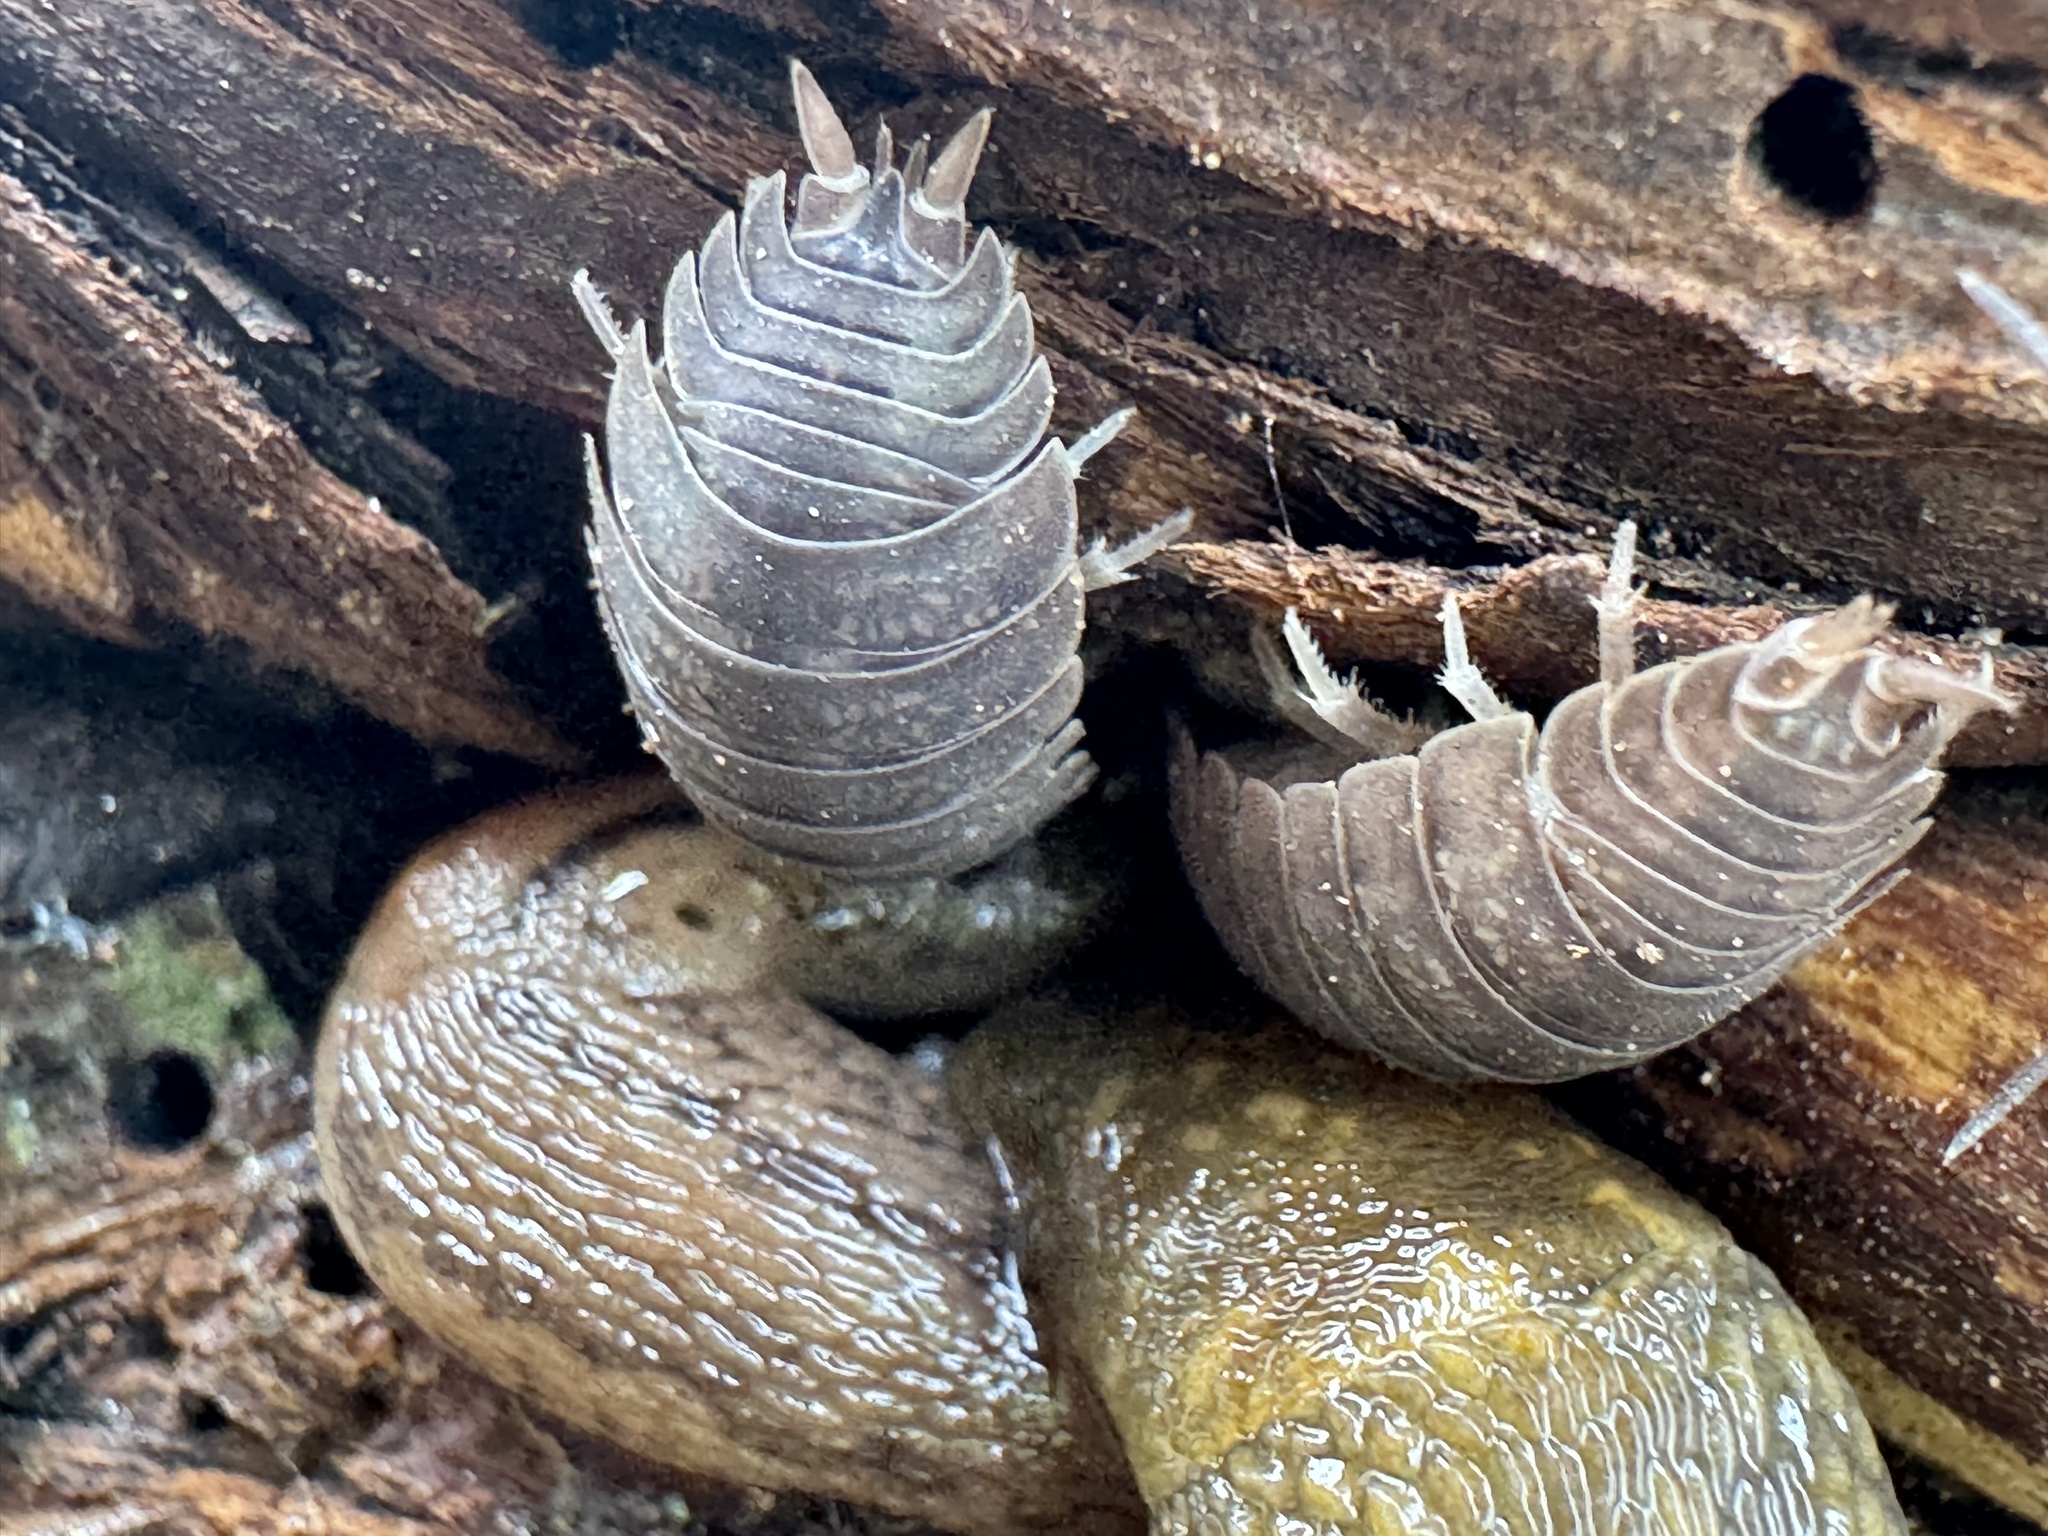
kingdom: Animalia
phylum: Mollusca
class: Gastropoda
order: Stylommatophora
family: Limacidae
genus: Limacus
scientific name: Limacus flavus
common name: Yellow gardenslug
